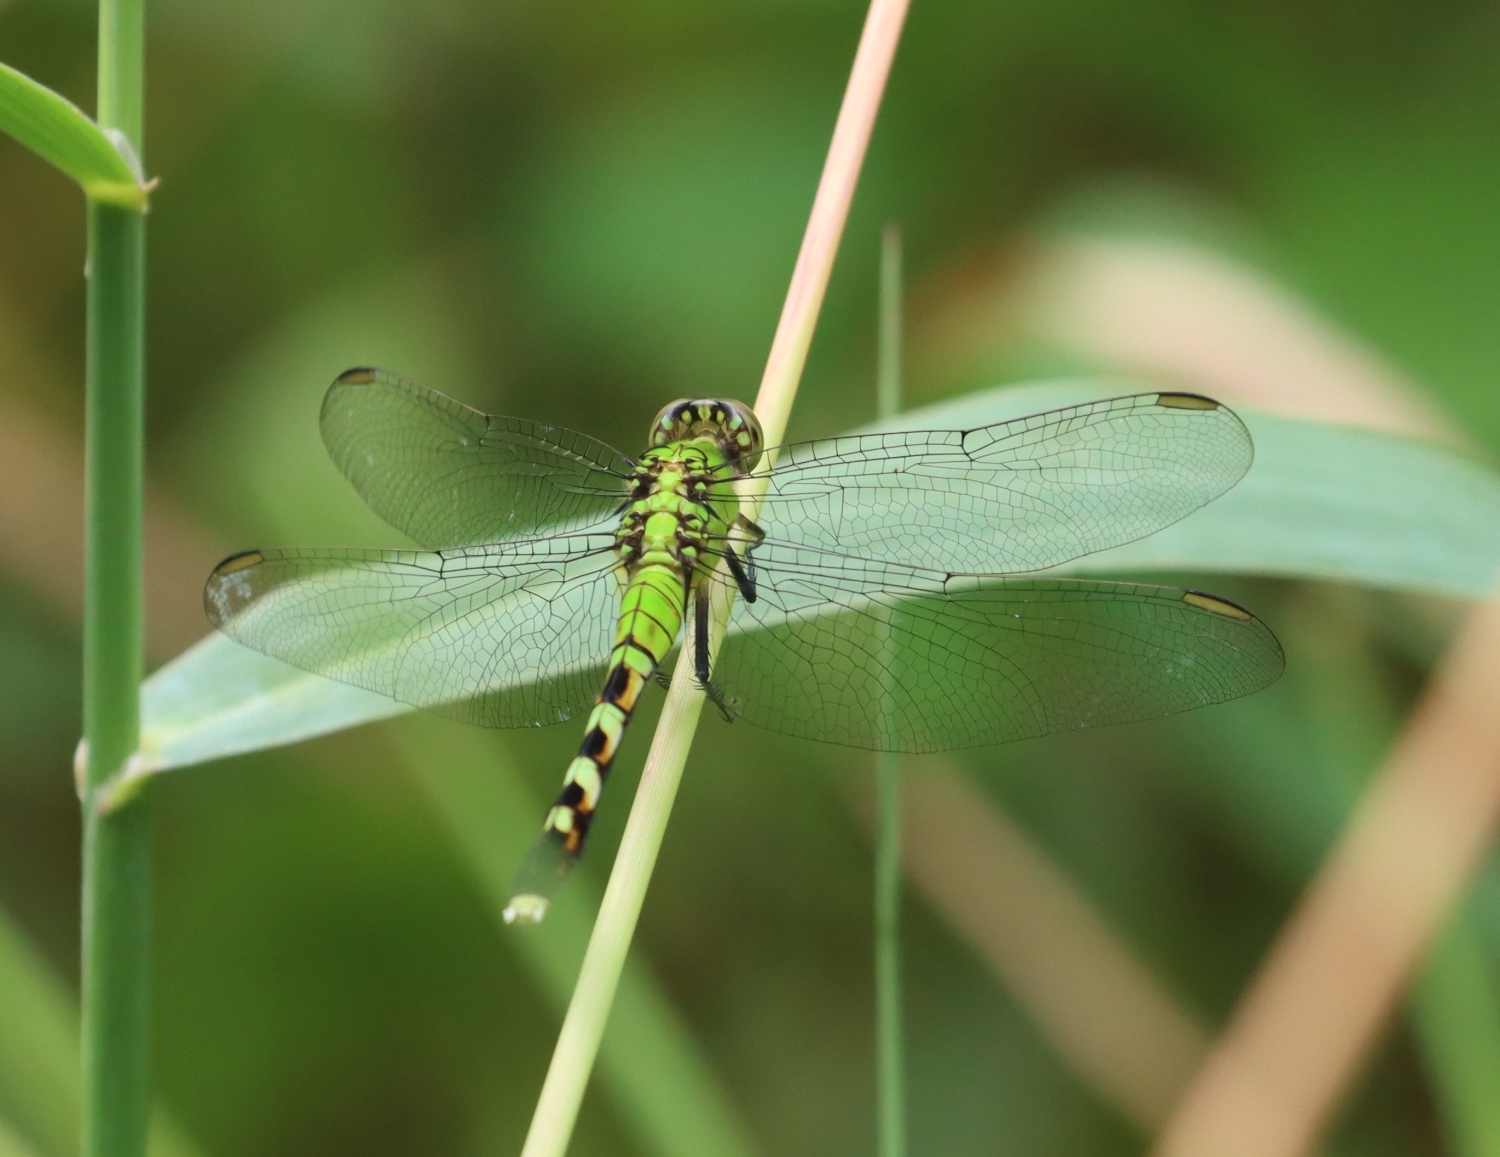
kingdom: Animalia
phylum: Arthropoda
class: Insecta
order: Odonata
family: Libellulidae
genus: Erythemis
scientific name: Erythemis simplicicollis
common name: Eastern pondhawk
